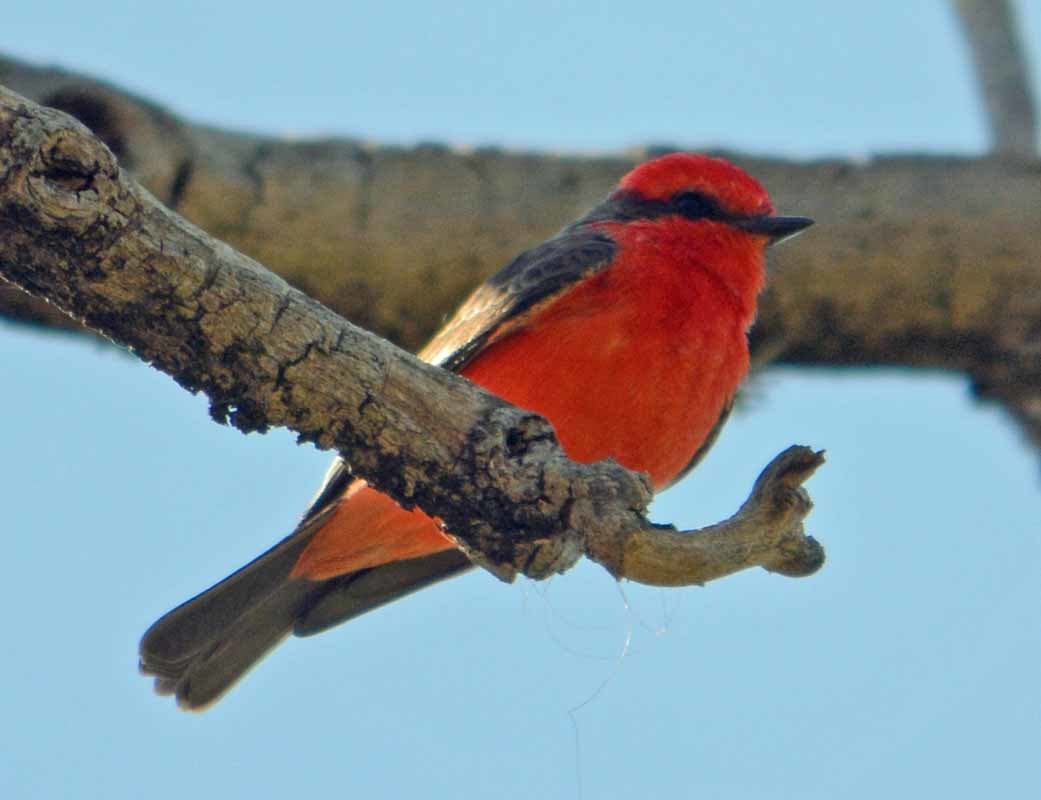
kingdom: Animalia
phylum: Chordata
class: Aves
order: Passeriformes
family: Tyrannidae
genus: Pyrocephalus
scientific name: Pyrocephalus rubinus
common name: Vermilion flycatcher
